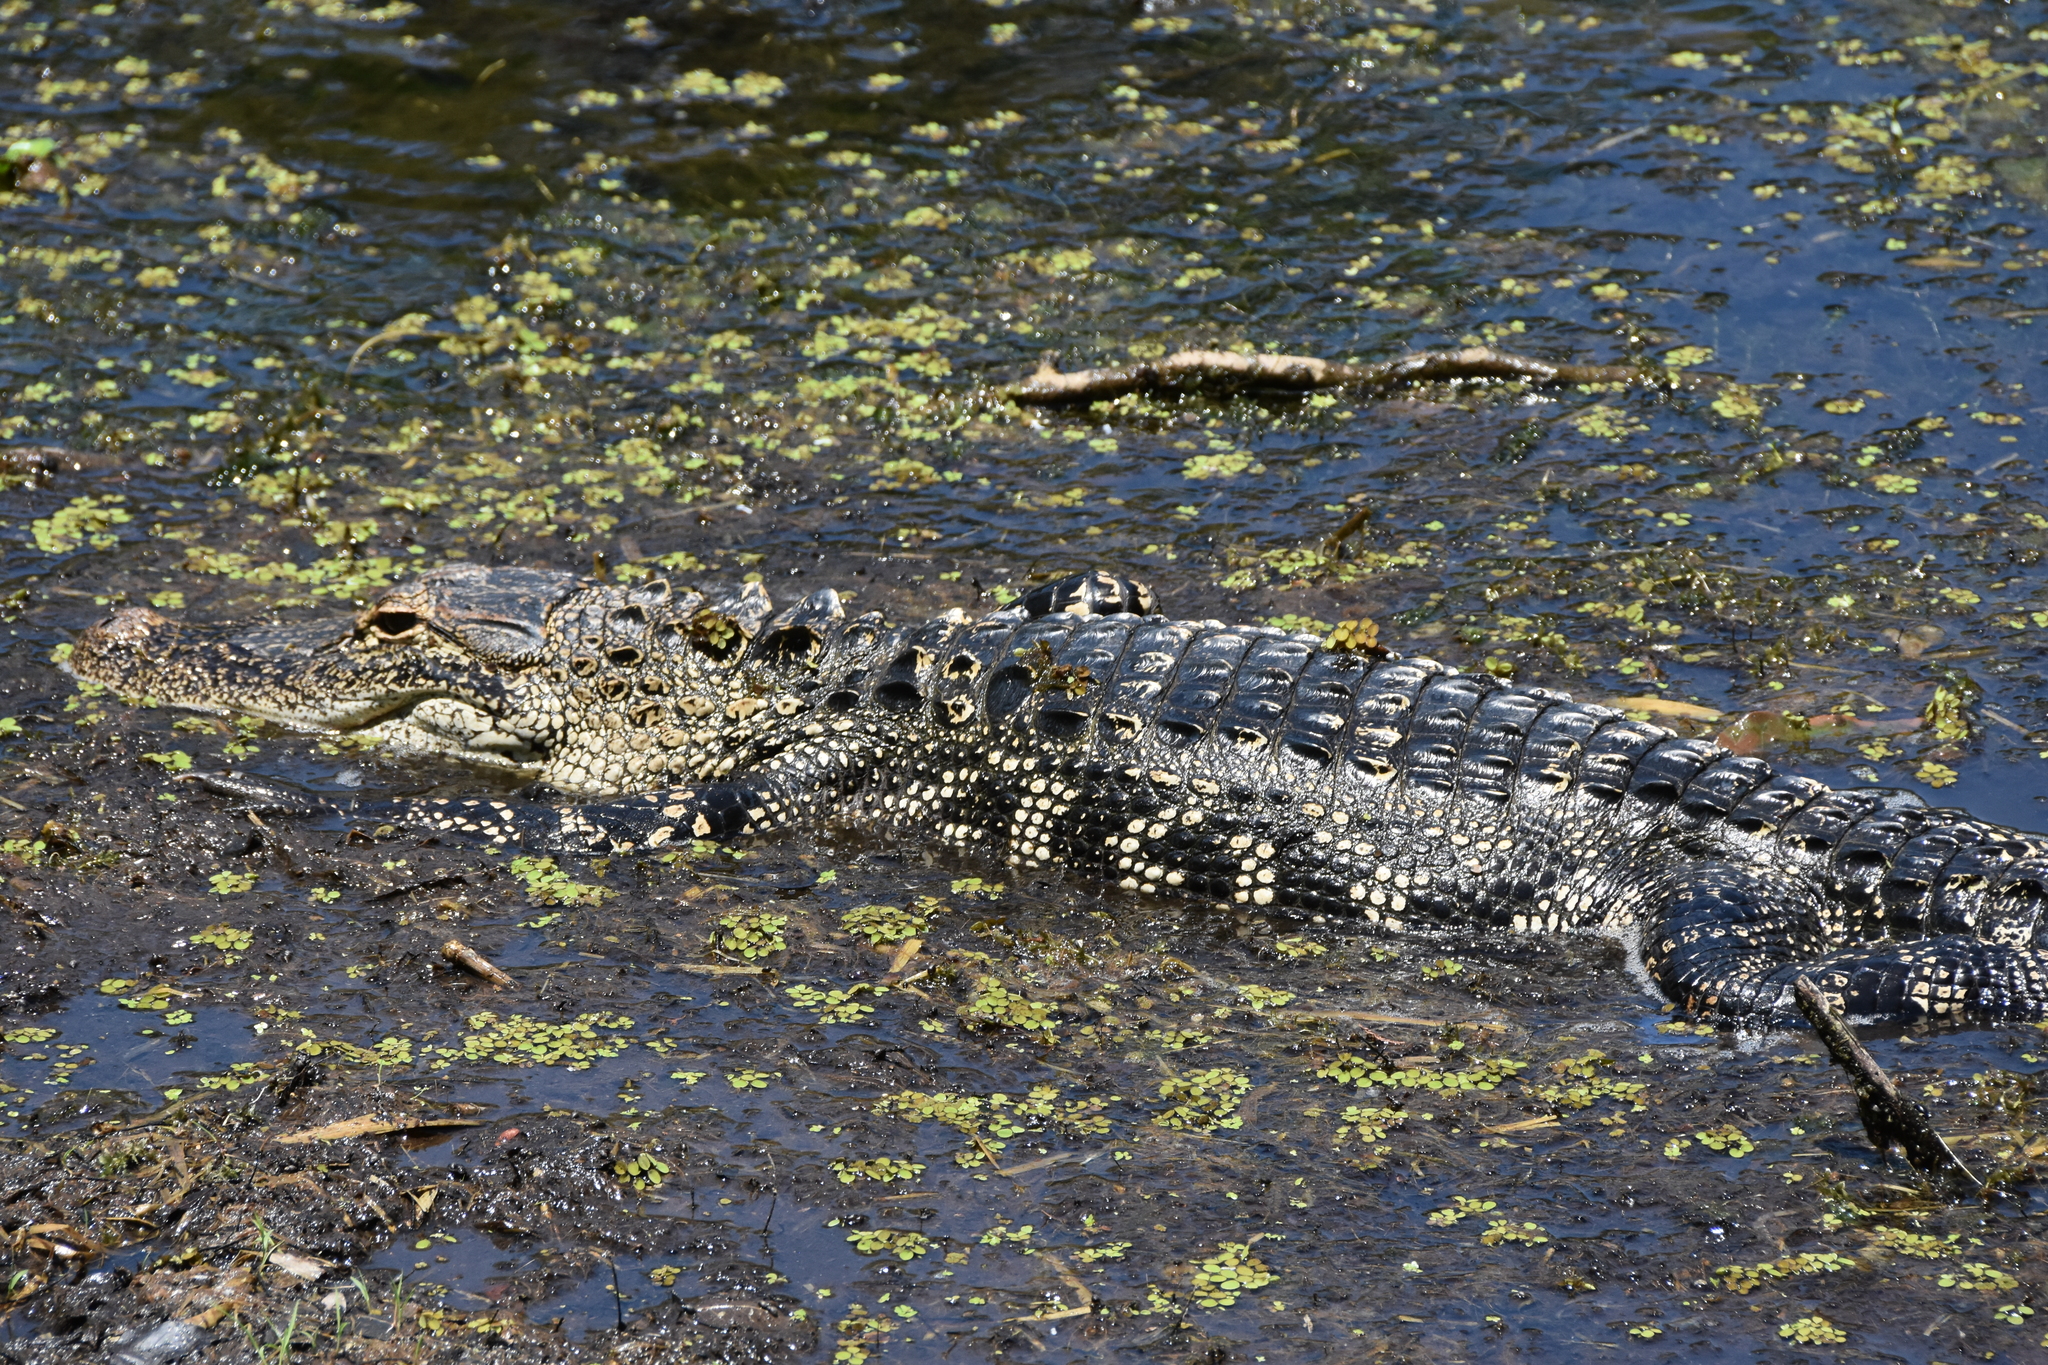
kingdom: Animalia
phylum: Chordata
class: Crocodylia
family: Alligatoridae
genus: Alligator
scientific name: Alligator mississippiensis
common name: American alligator
